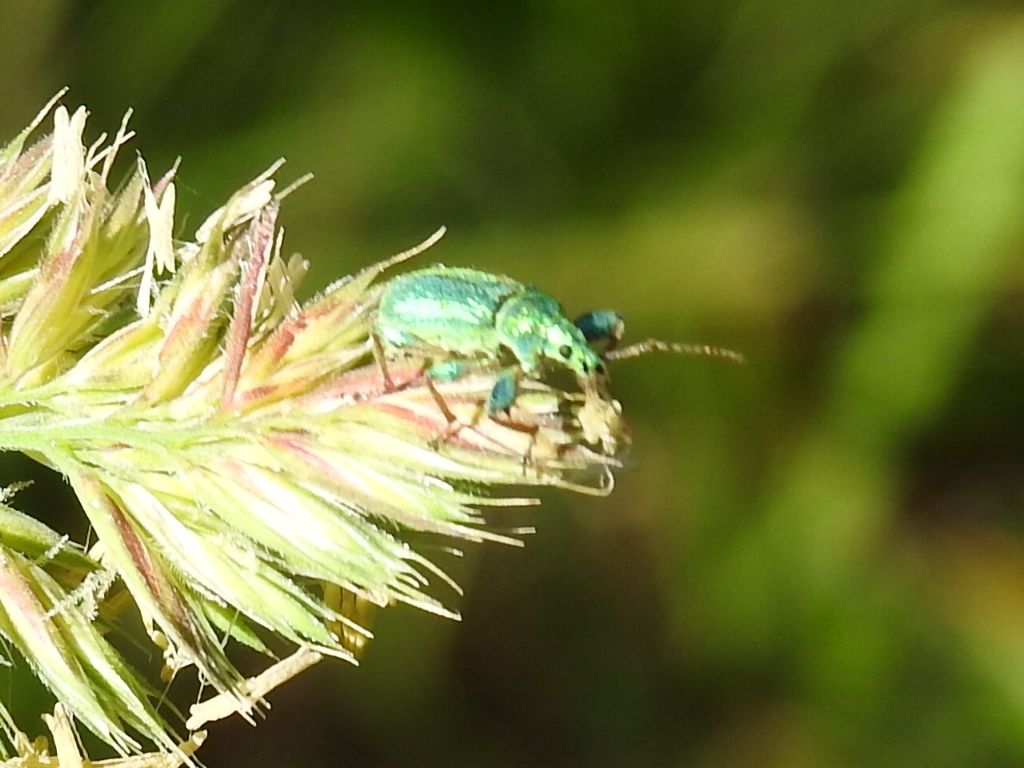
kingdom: Animalia
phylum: Arthropoda
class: Insecta
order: Coleoptera
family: Curculionidae
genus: Phyllobius
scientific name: Phyllobius arborator
